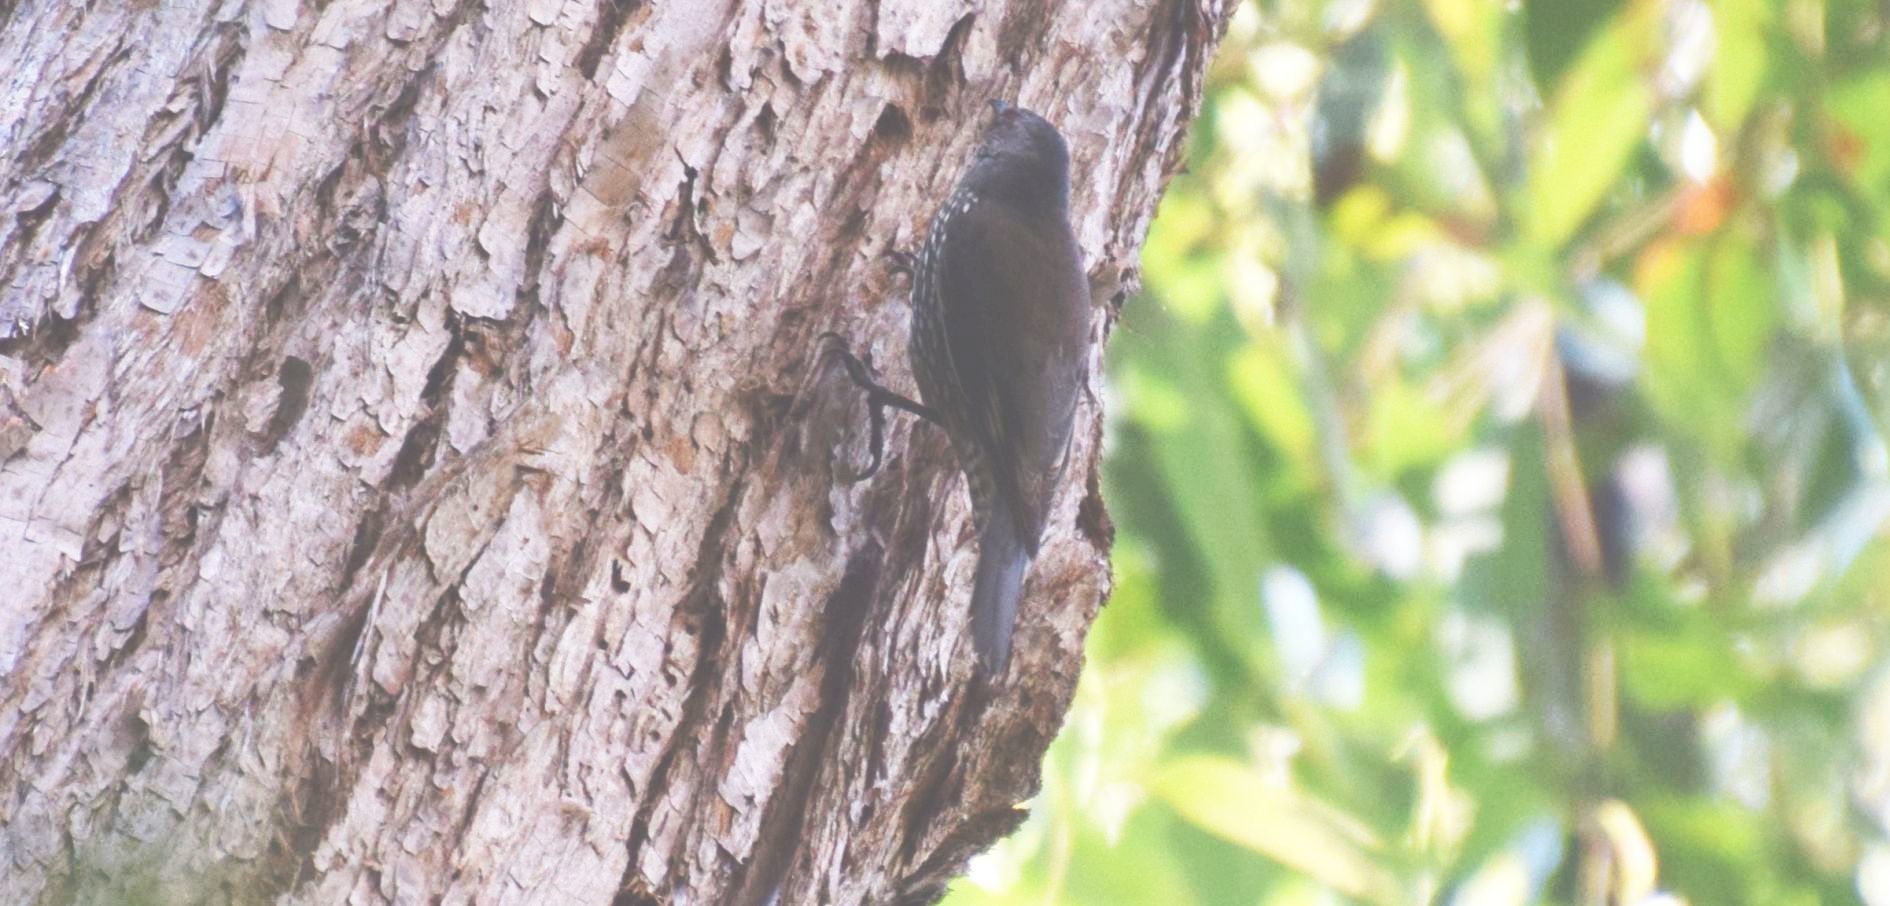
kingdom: Animalia
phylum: Chordata
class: Aves
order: Passeriformes
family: Climacteridae
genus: Climacteris
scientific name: Climacteris erythrops
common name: Red-browed treecreeper
